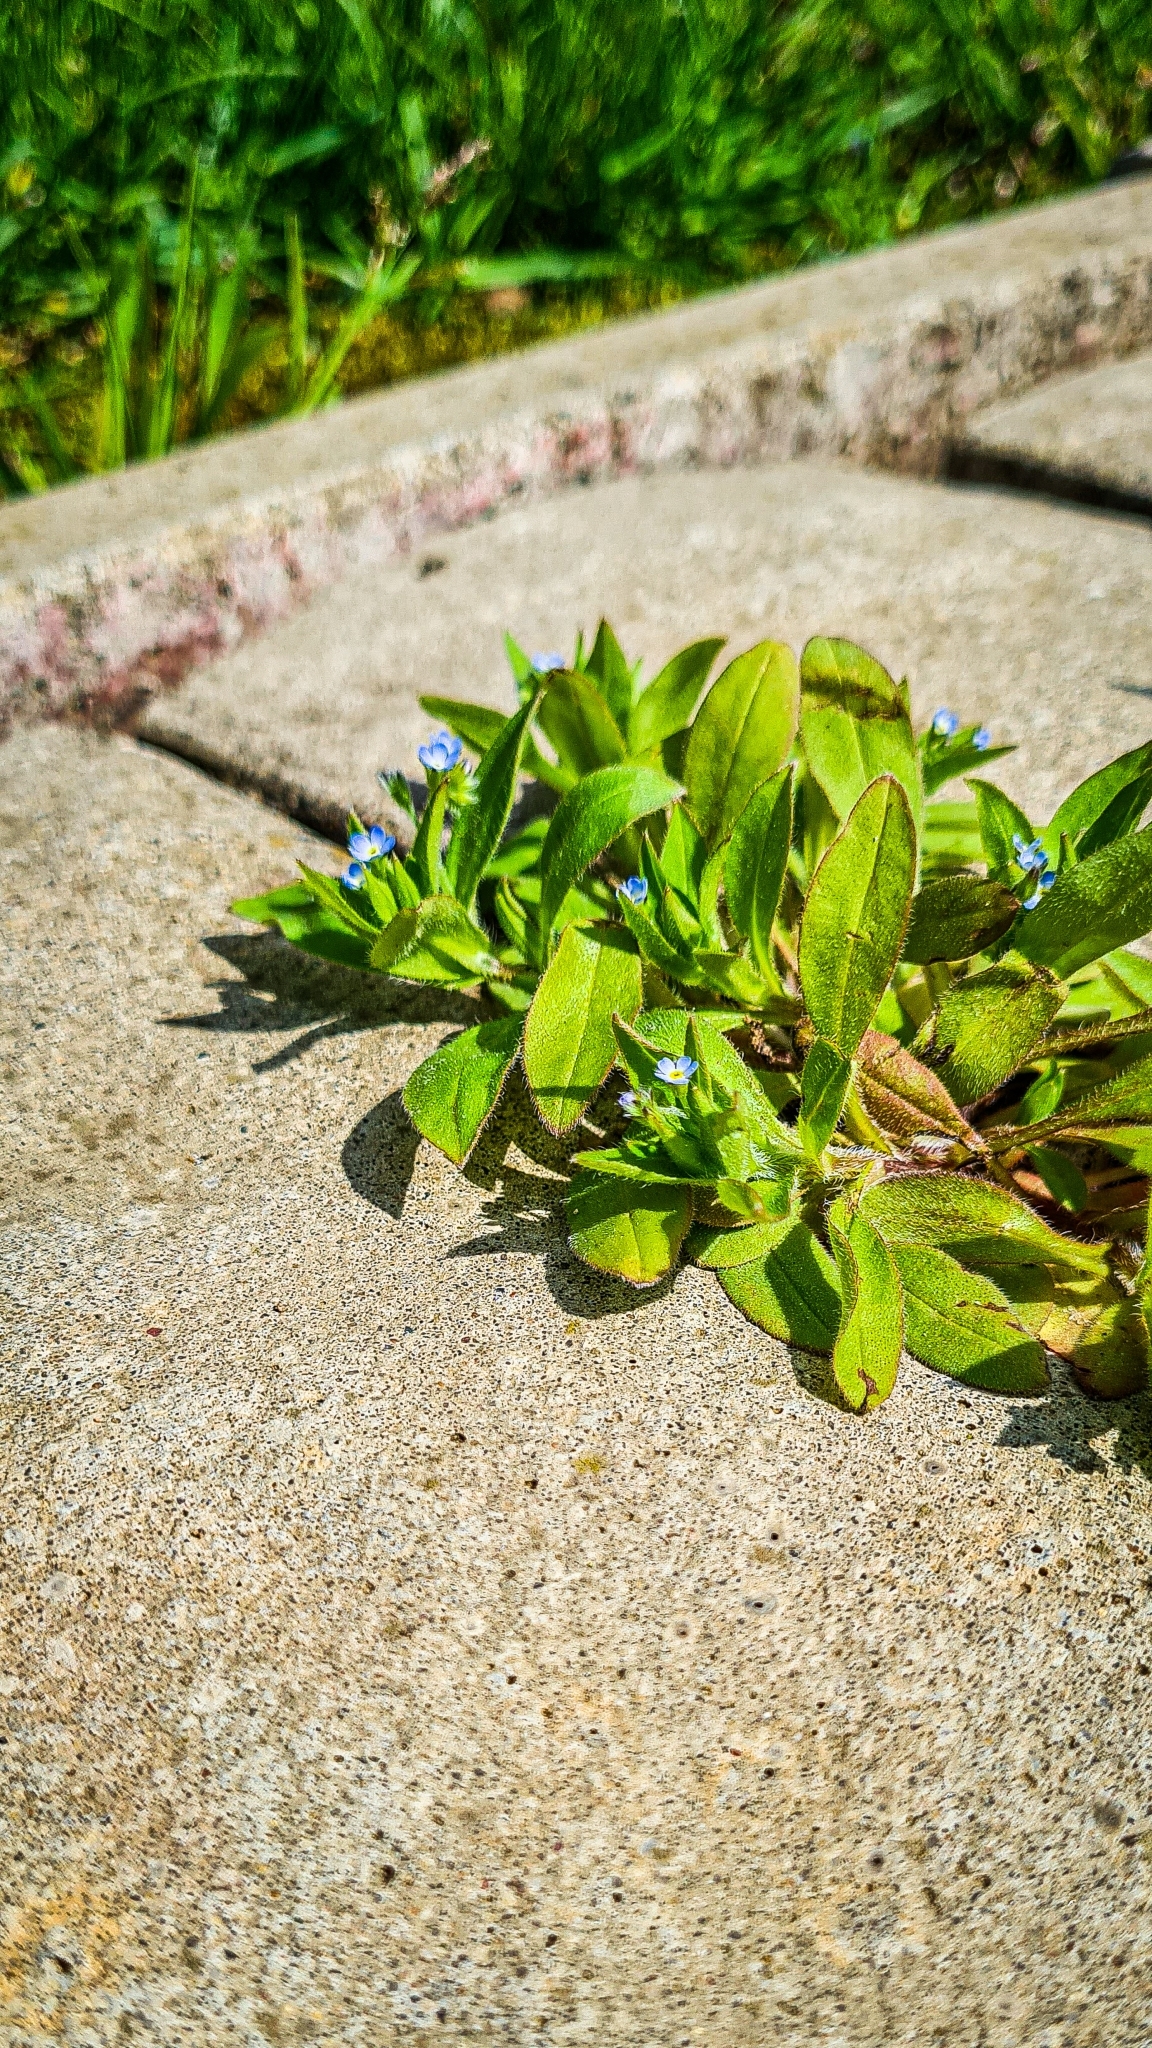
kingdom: Plantae
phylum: Tracheophyta
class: Magnoliopsida
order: Boraginales
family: Boraginaceae
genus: Myosotis
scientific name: Myosotis sylvatica
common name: Wood forget-me-not
